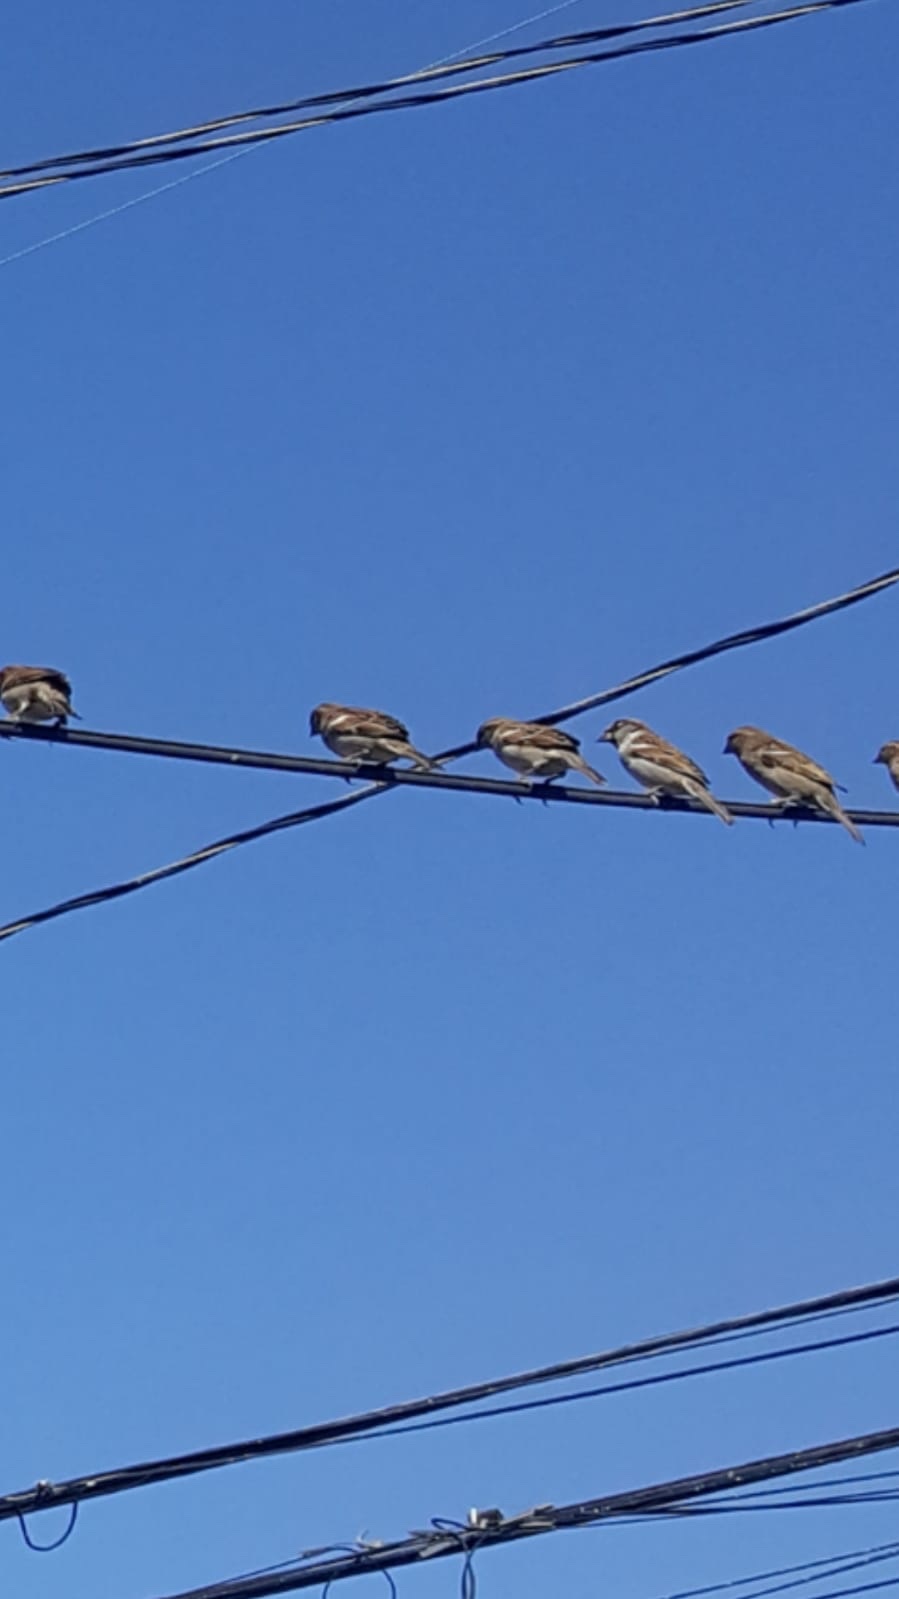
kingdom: Animalia
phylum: Chordata
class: Aves
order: Passeriformes
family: Passeridae
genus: Passer
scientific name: Passer domesticus
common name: House sparrow
